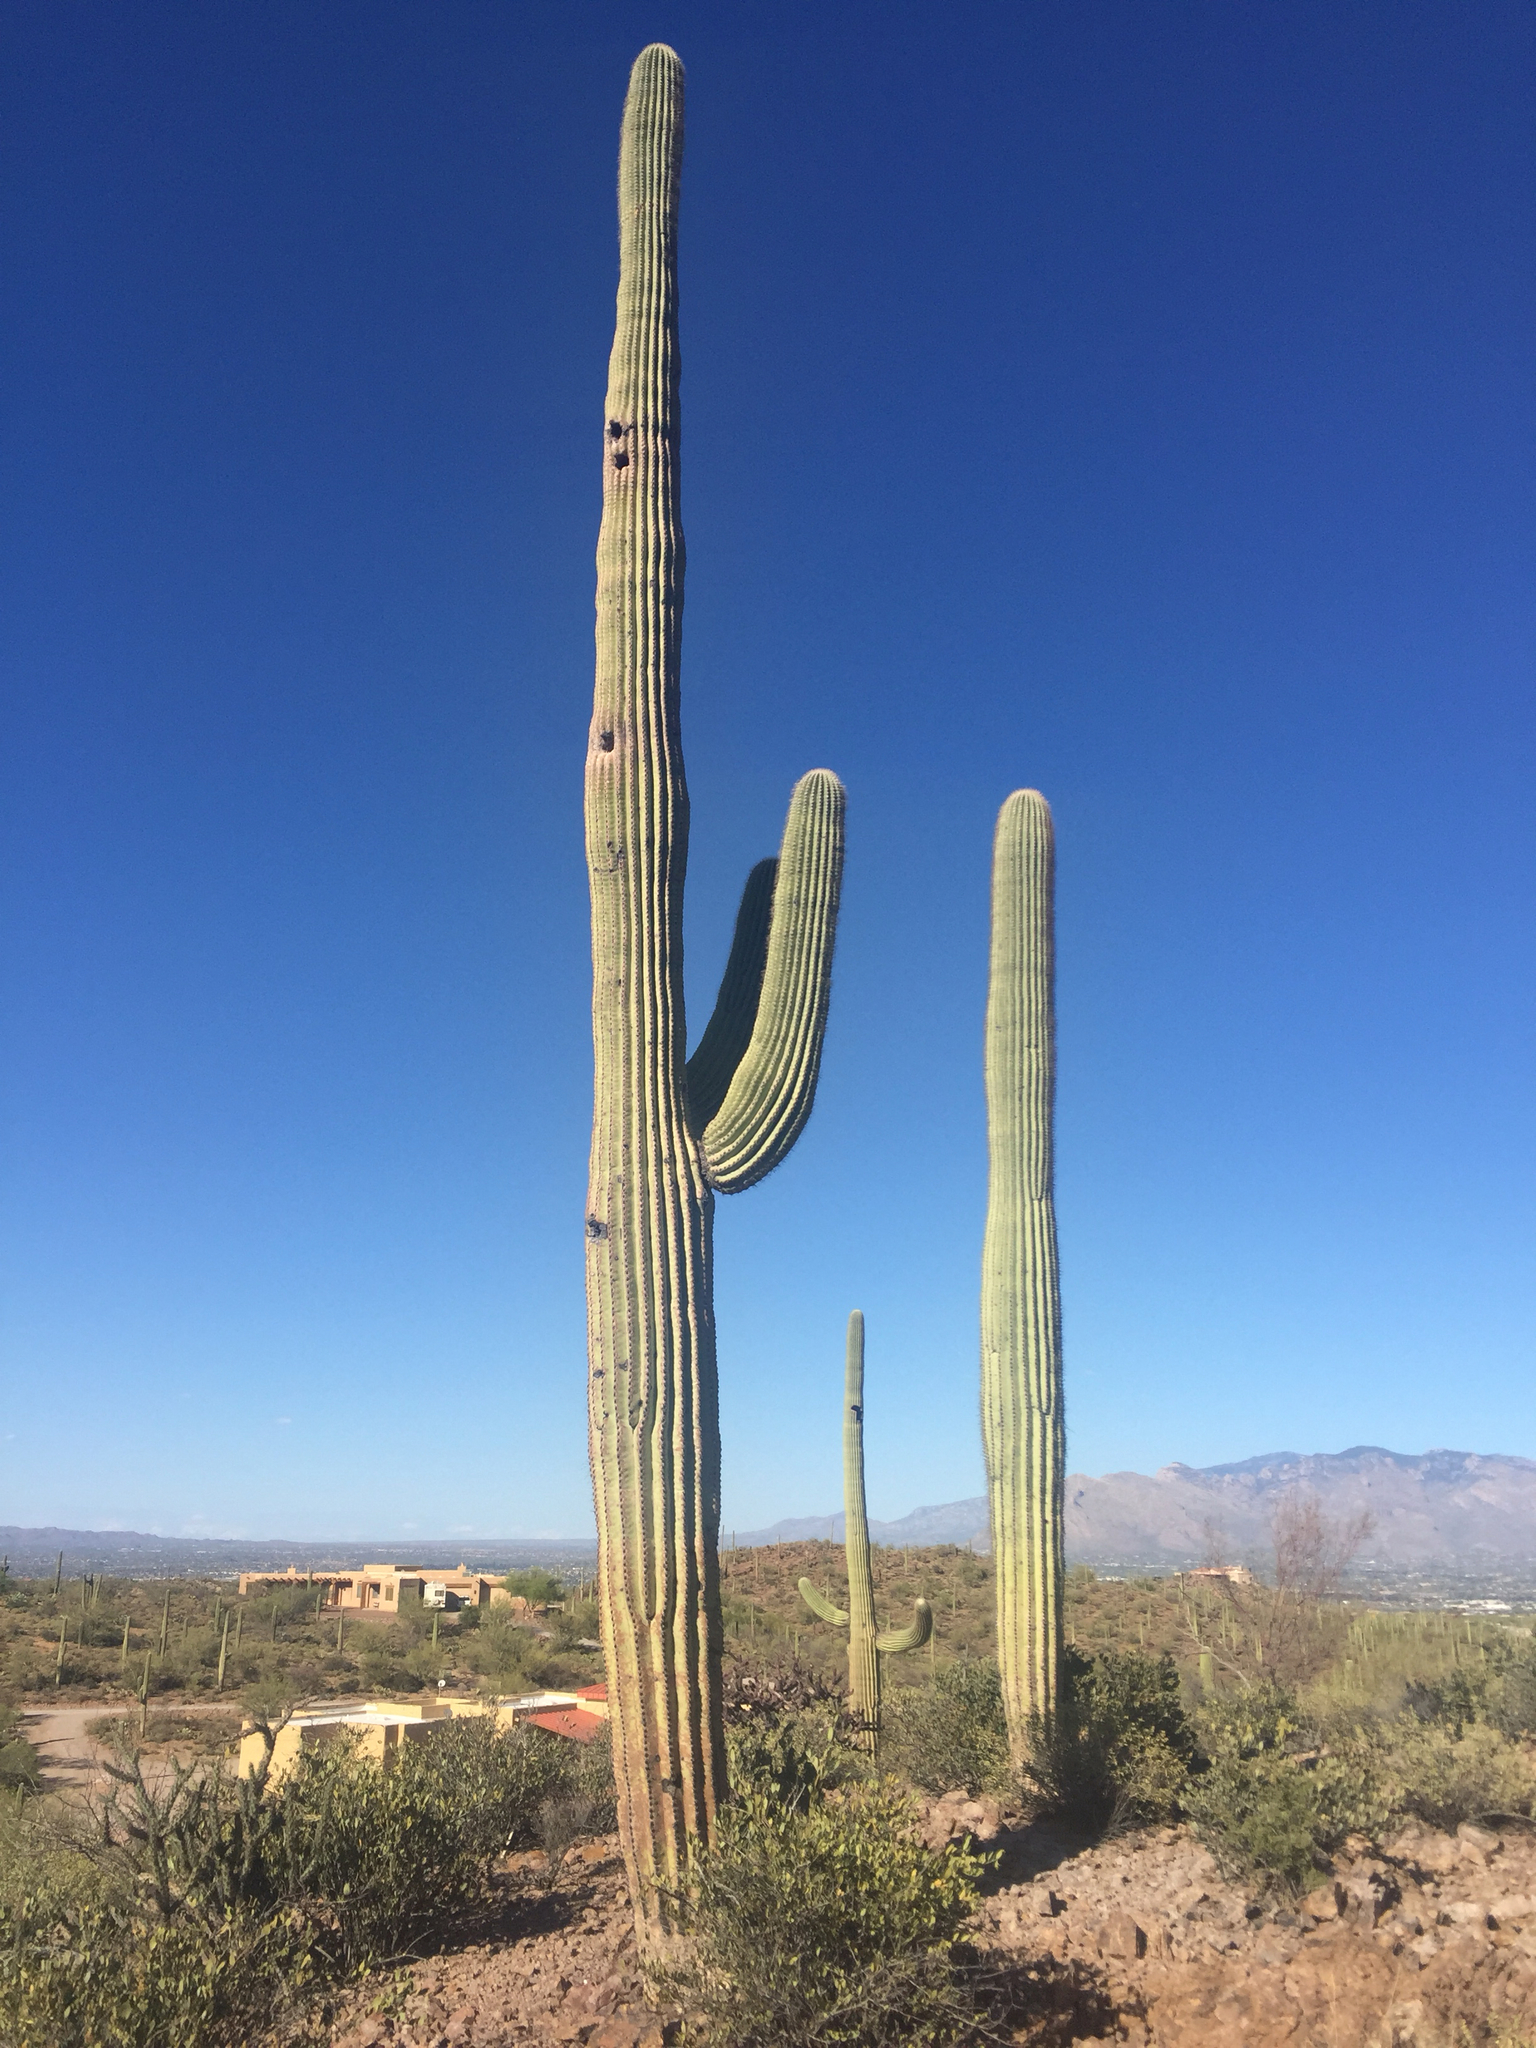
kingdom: Plantae
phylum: Tracheophyta
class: Magnoliopsida
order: Caryophyllales
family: Cactaceae
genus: Carnegiea
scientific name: Carnegiea gigantea
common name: Saguaro
